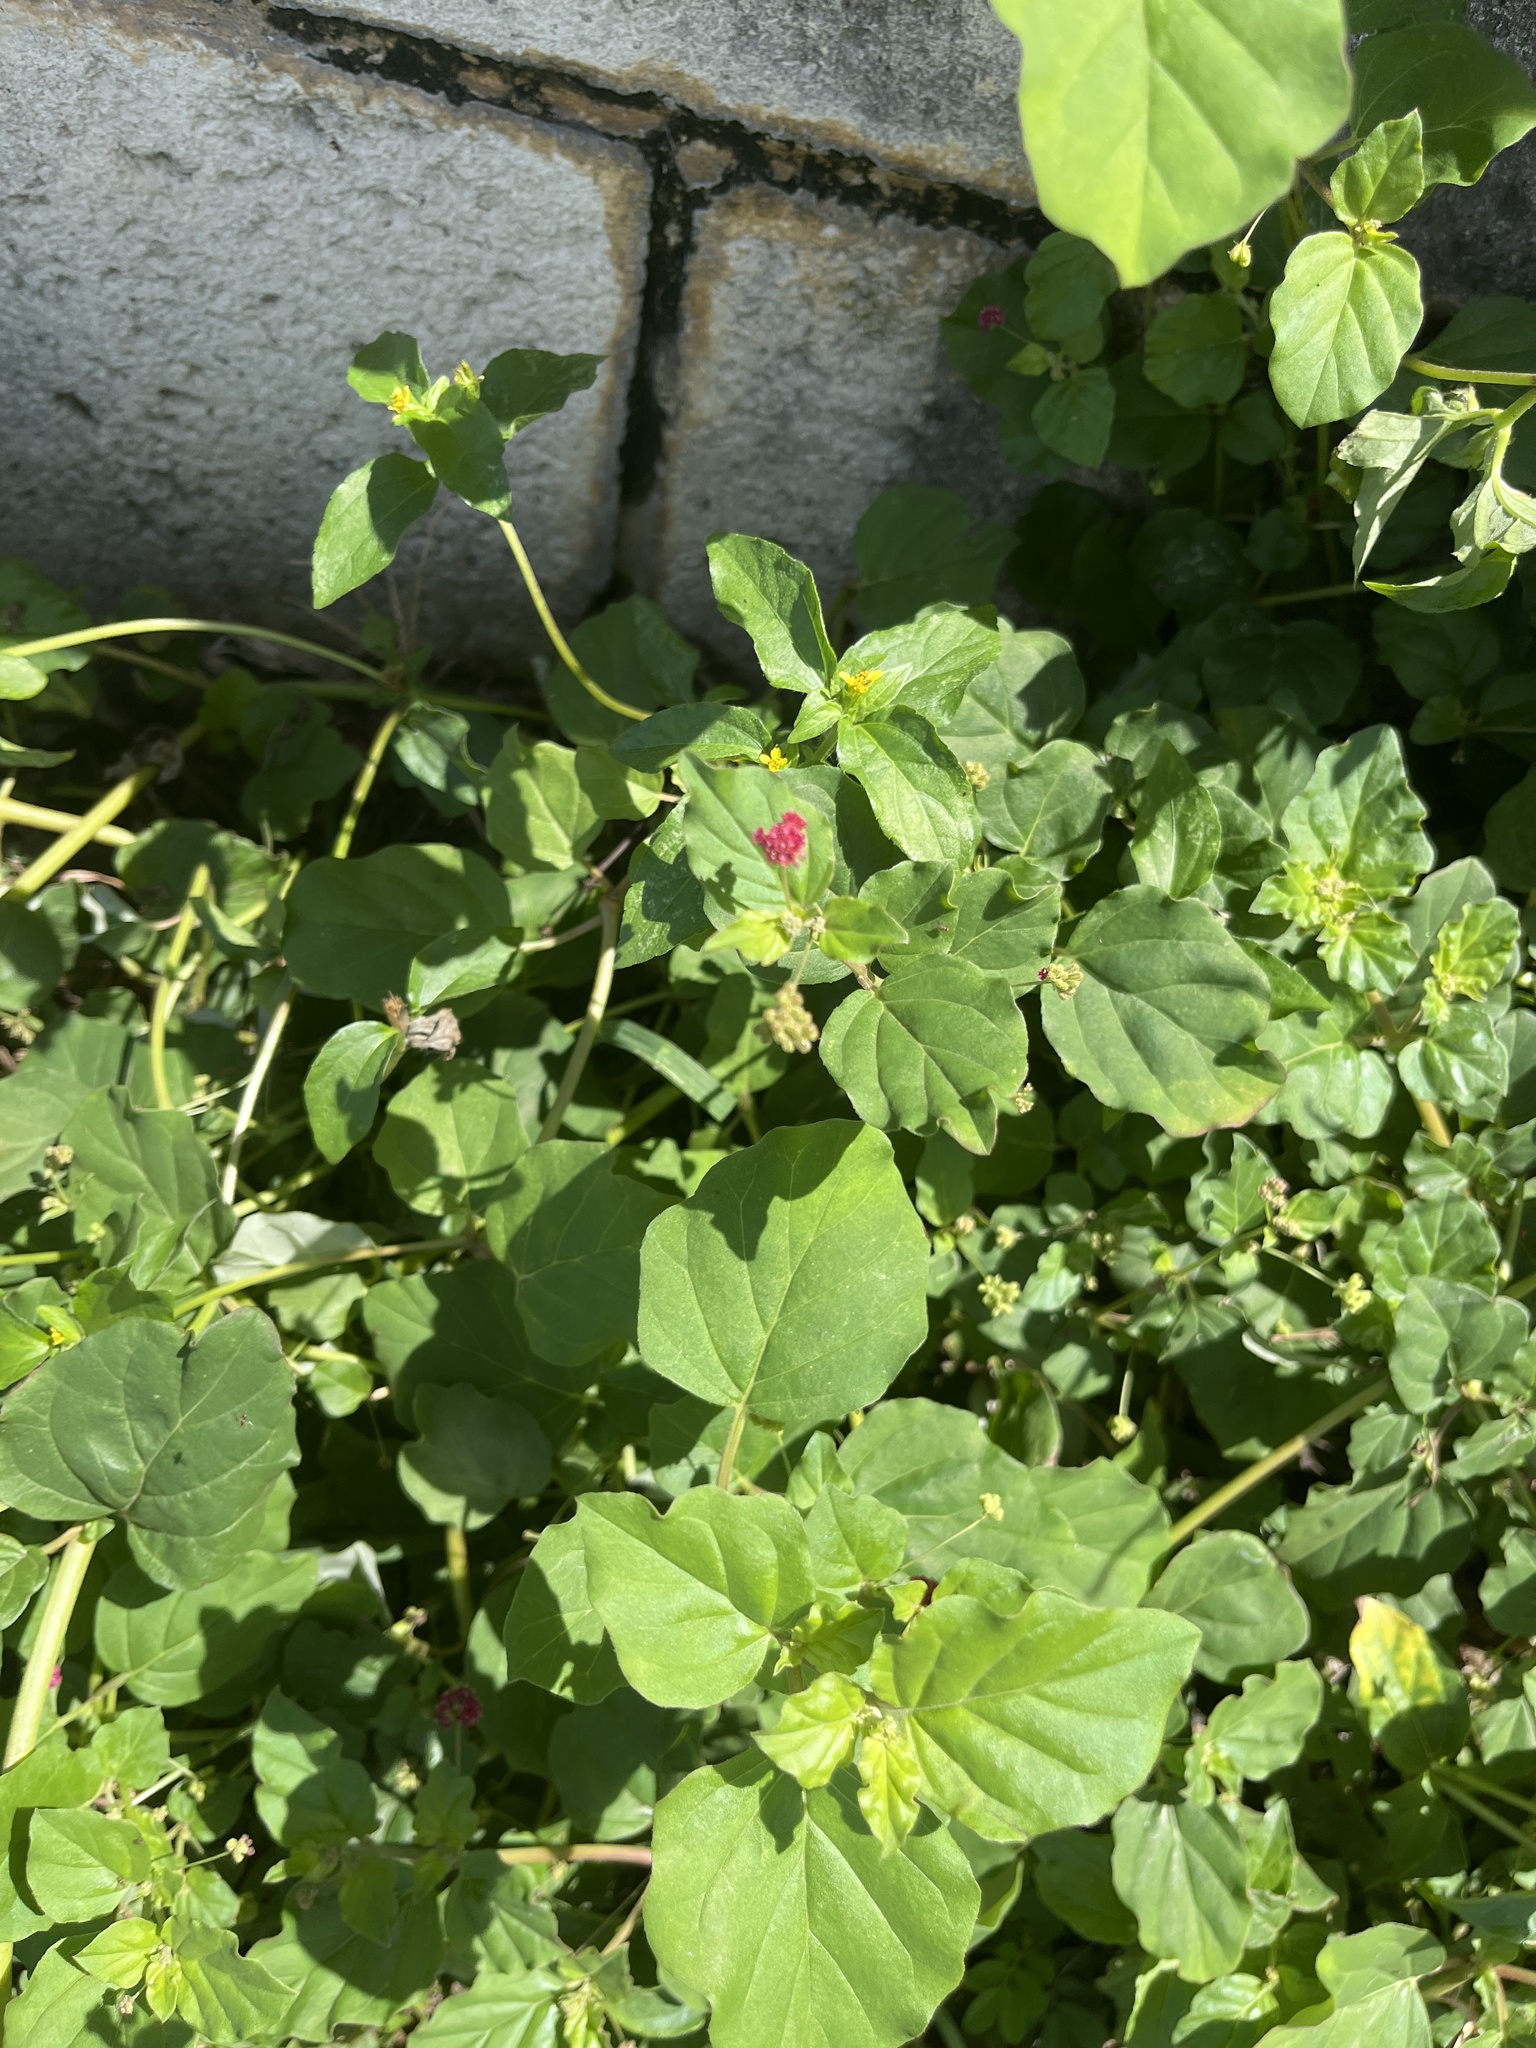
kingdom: Plantae
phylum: Tracheophyta
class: Magnoliopsida
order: Caryophyllales
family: Nyctaginaceae
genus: Boerhavia
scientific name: Boerhavia coccinea
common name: Scarlet spiderling
